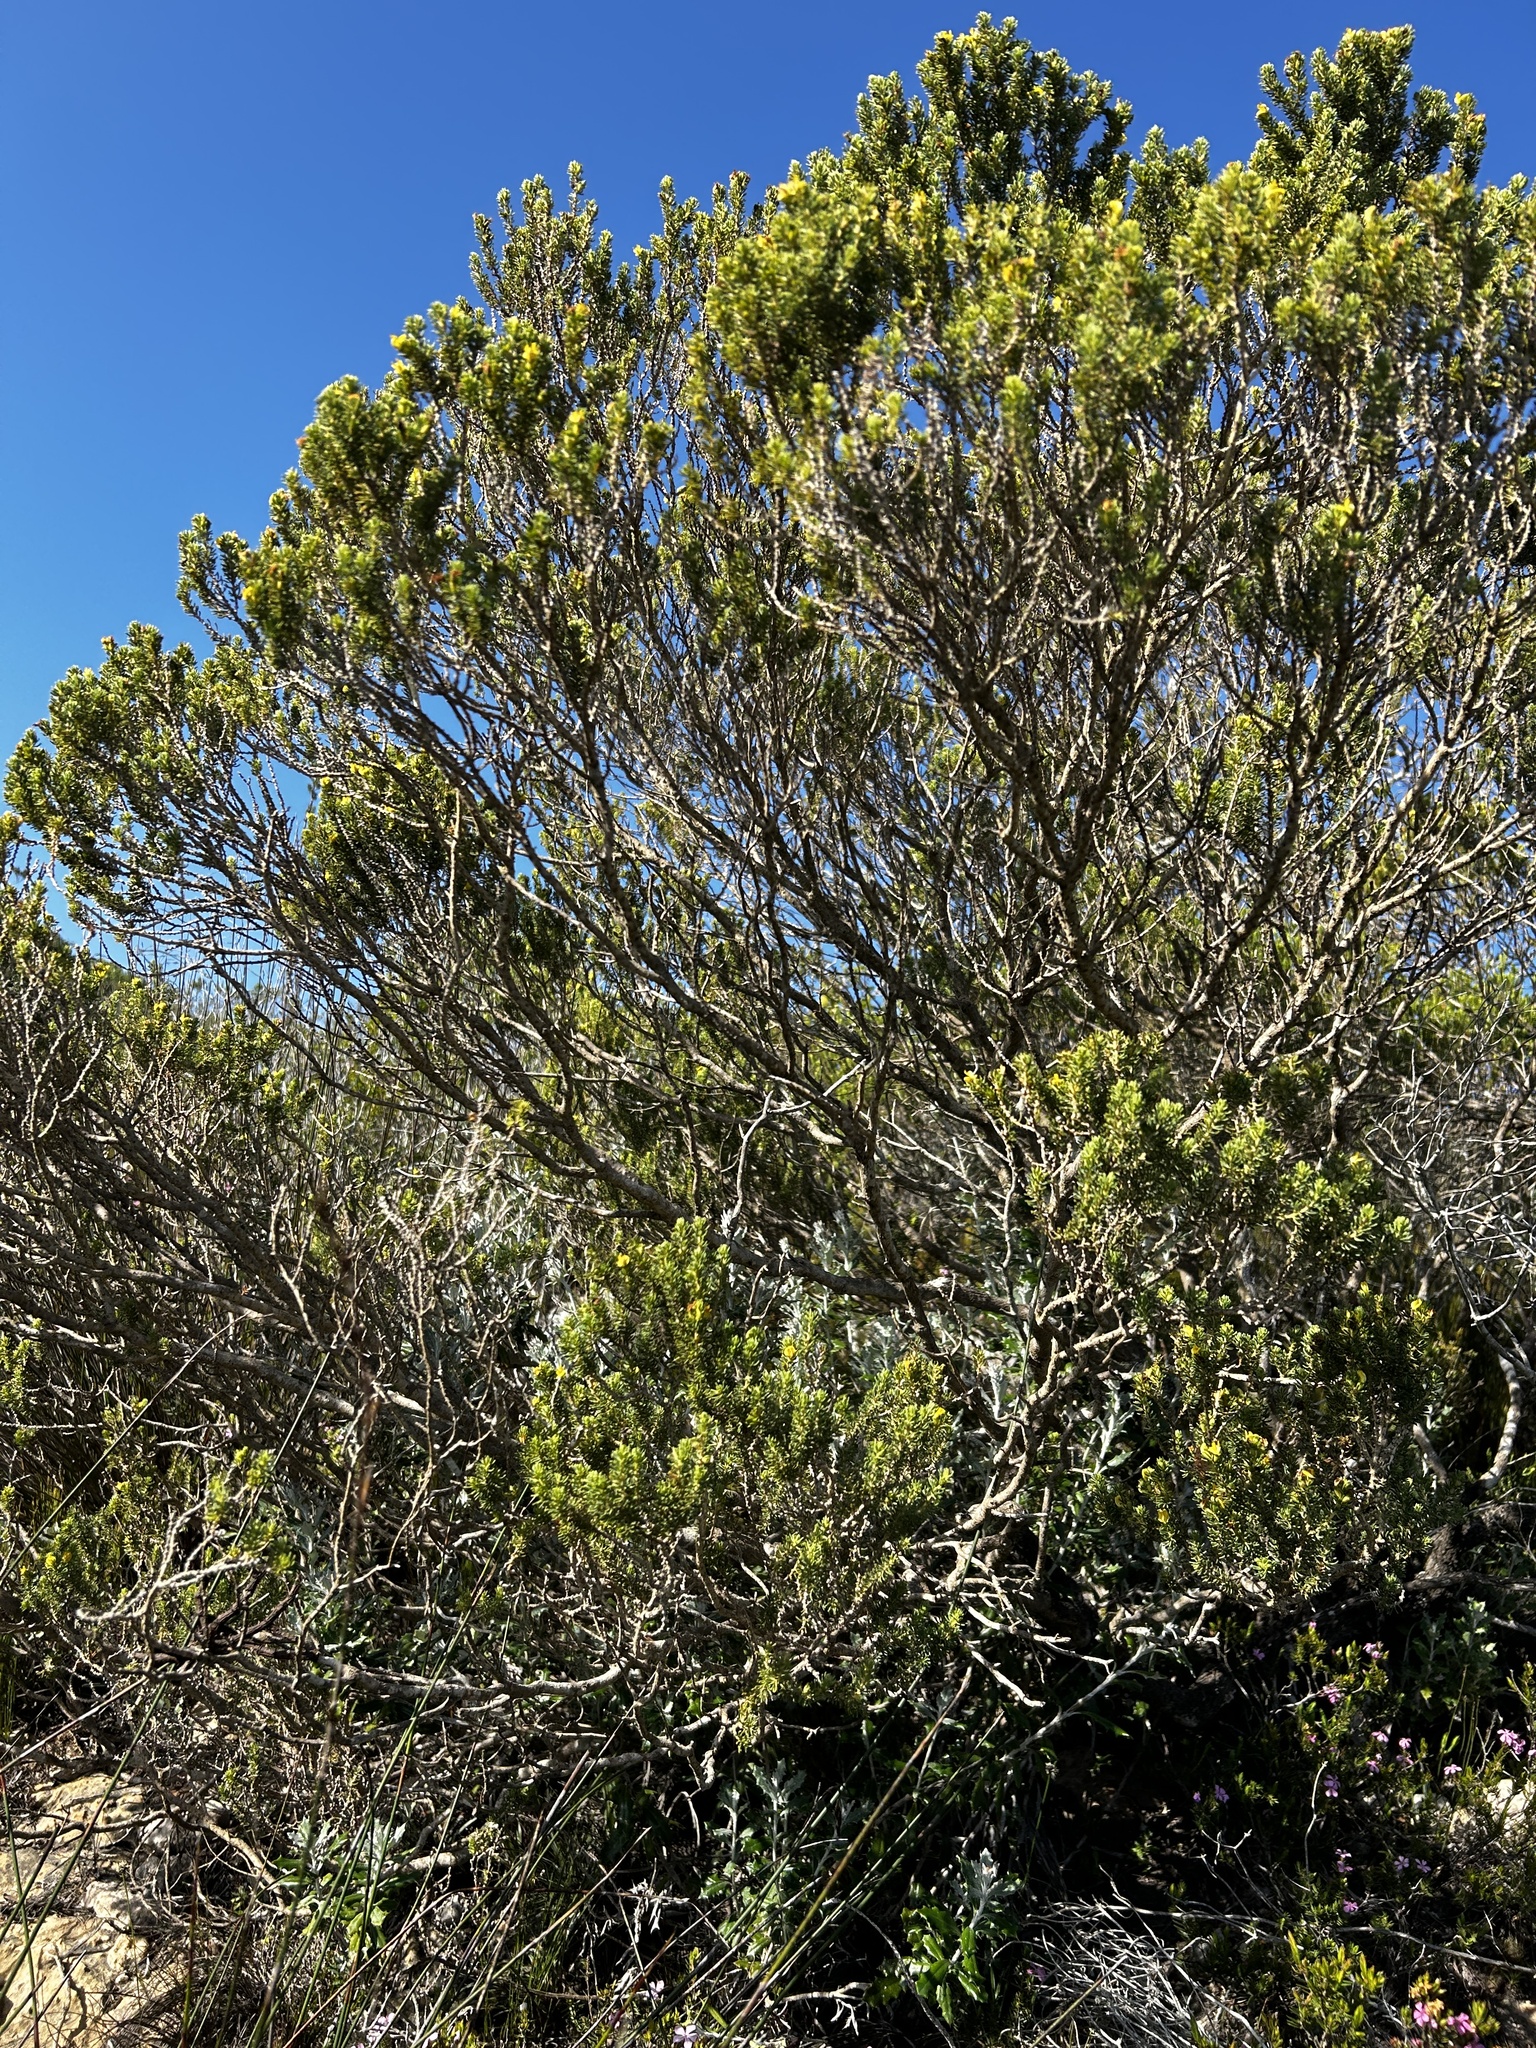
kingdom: Plantae
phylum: Tracheophyta
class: Magnoliopsida
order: Fabales
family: Fabaceae
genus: Aspalathus
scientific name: Aspalathus pallescens
